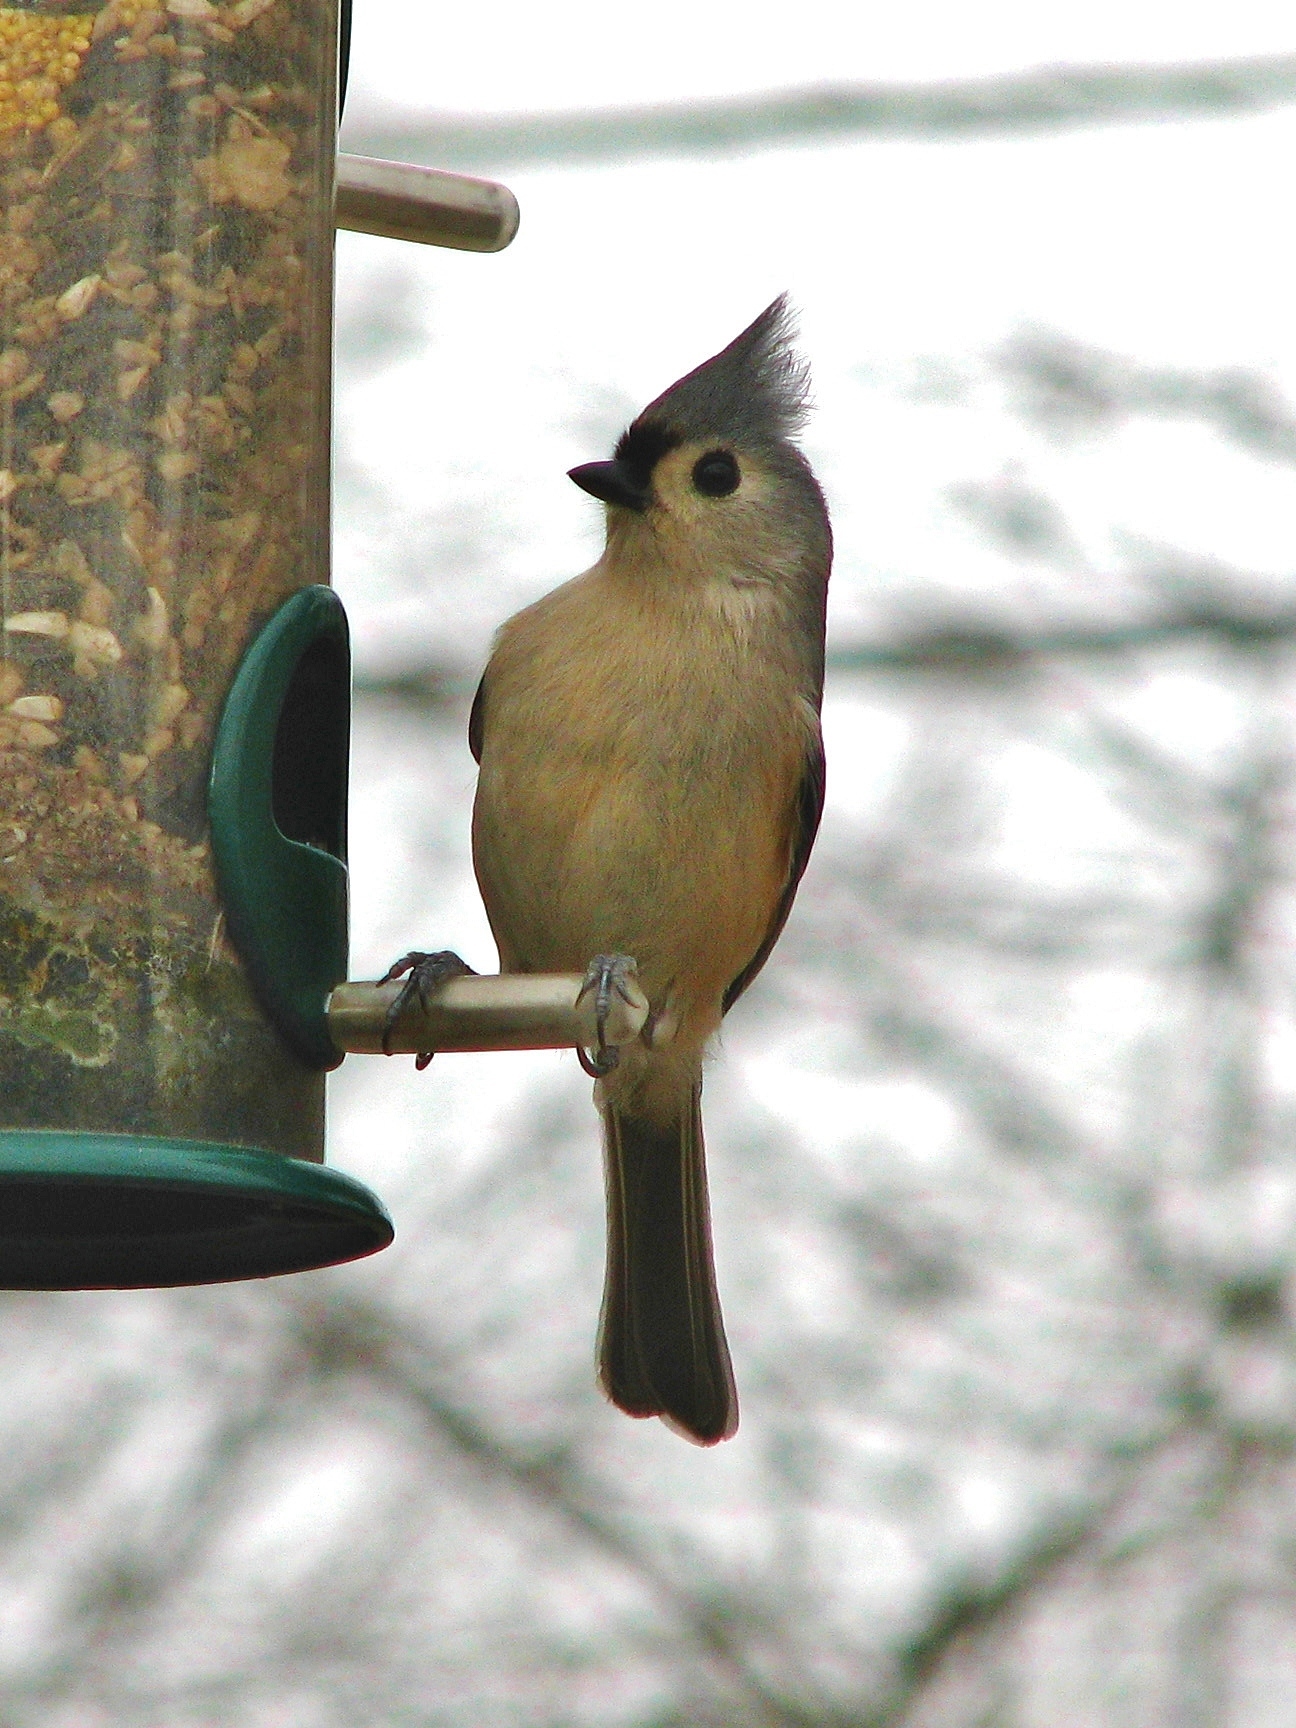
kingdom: Animalia
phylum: Chordata
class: Aves
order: Passeriformes
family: Paridae
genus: Baeolophus
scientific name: Baeolophus bicolor
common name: Tufted titmouse
